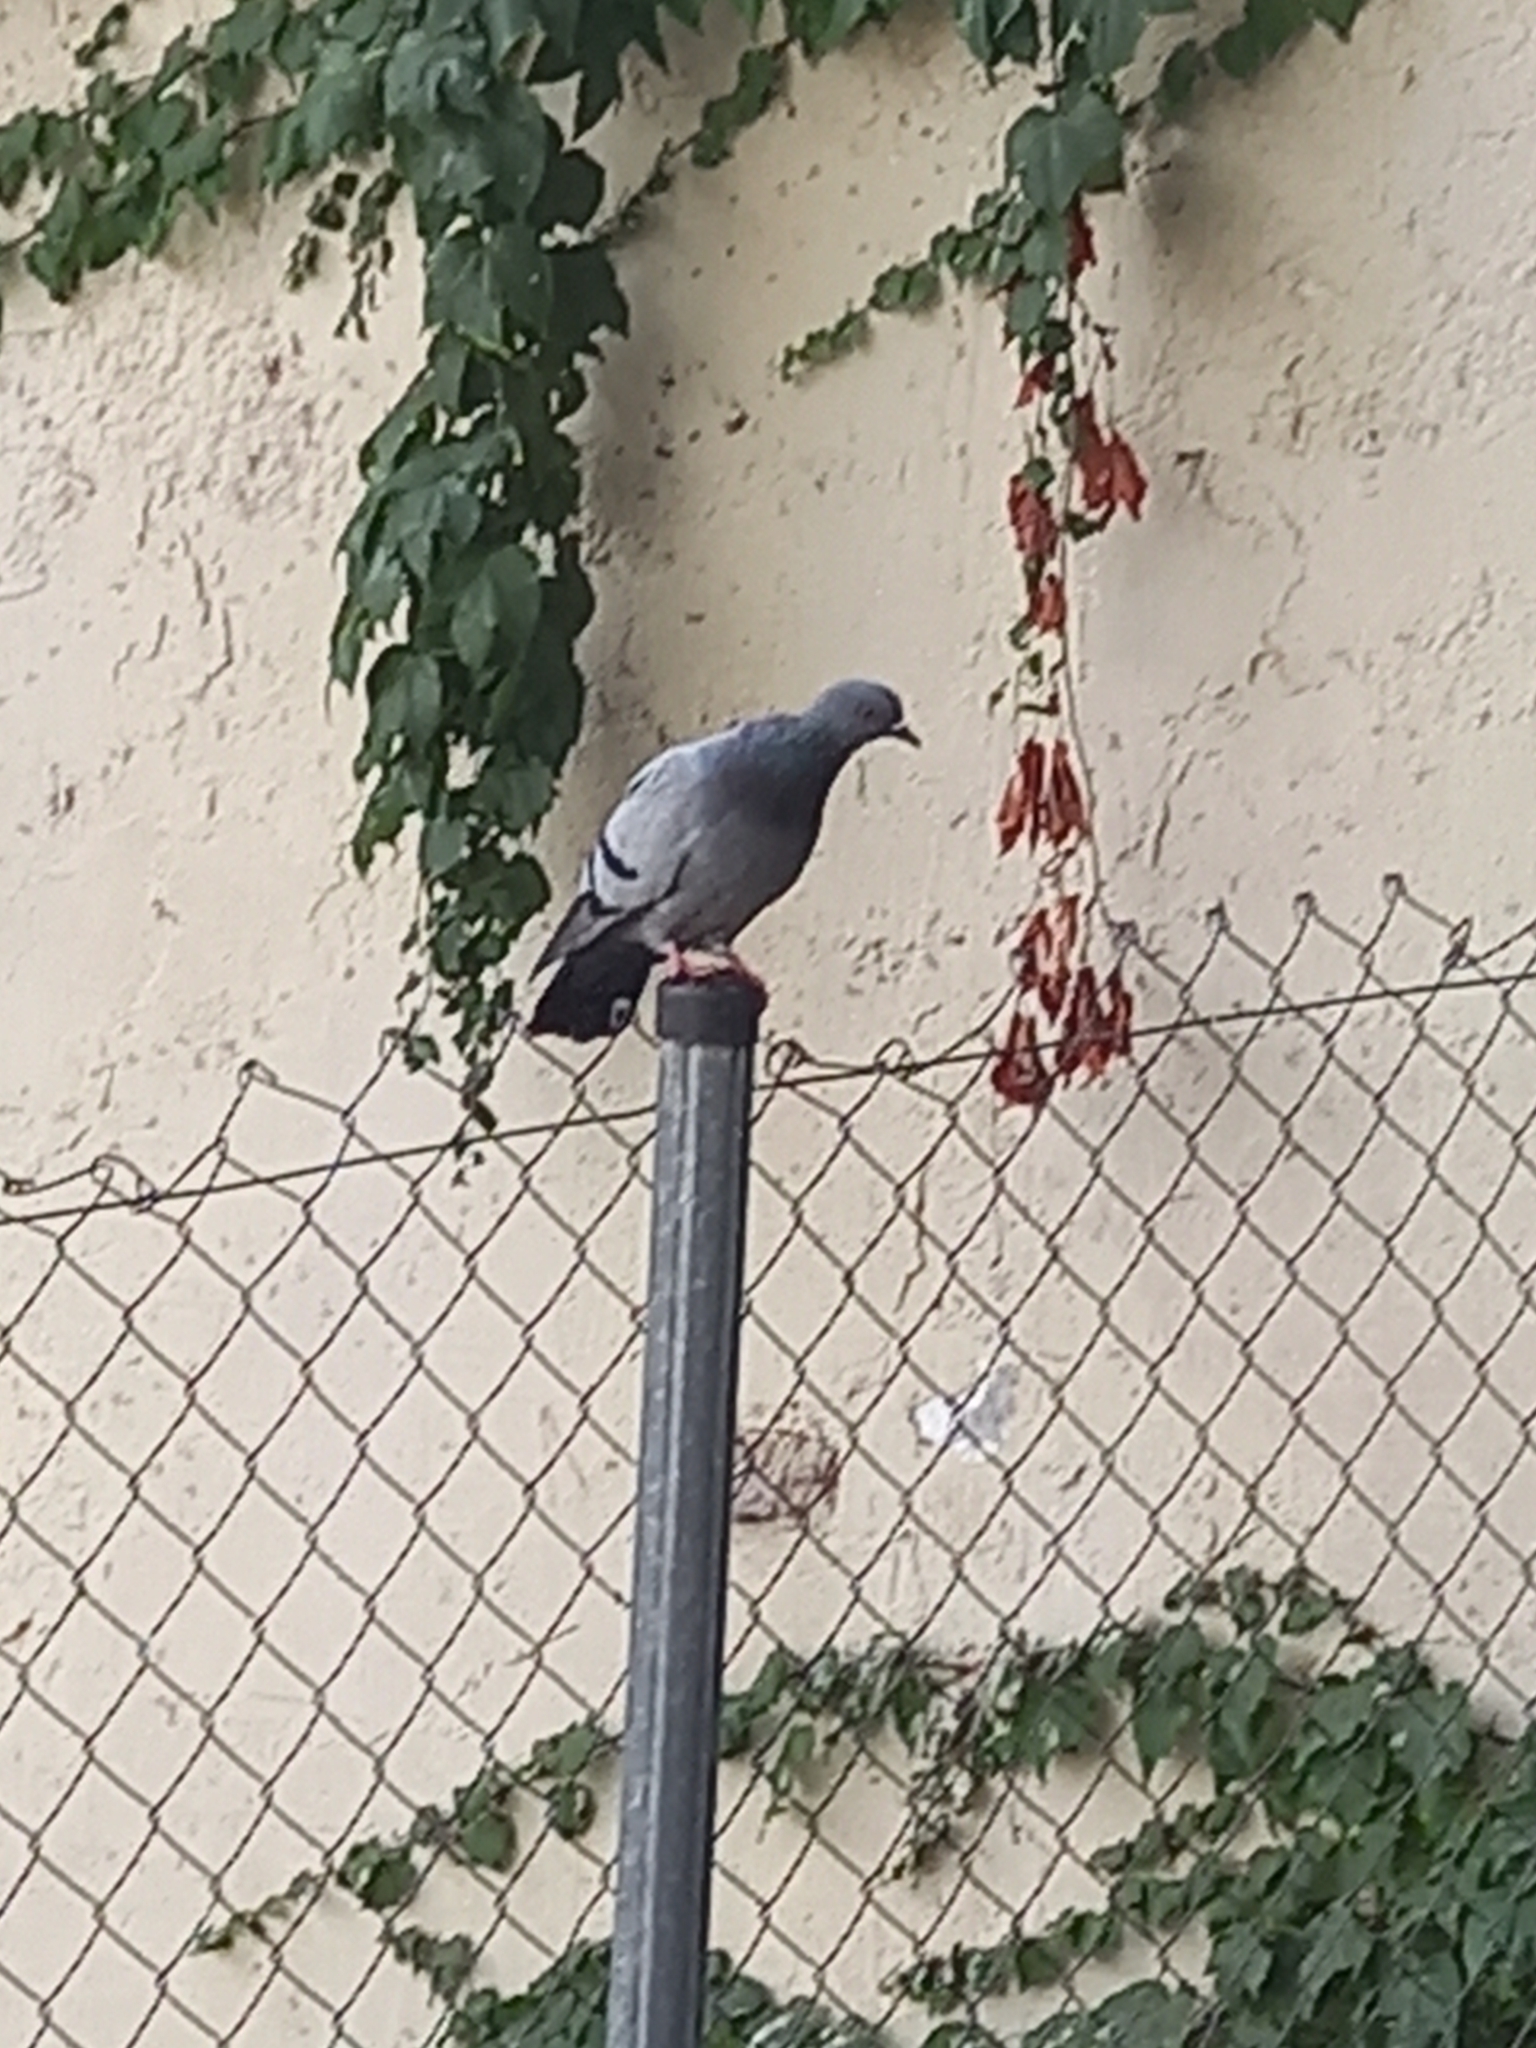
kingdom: Animalia
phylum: Chordata
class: Aves
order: Columbiformes
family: Columbidae
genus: Columba
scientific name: Columba livia
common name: Rock pigeon
